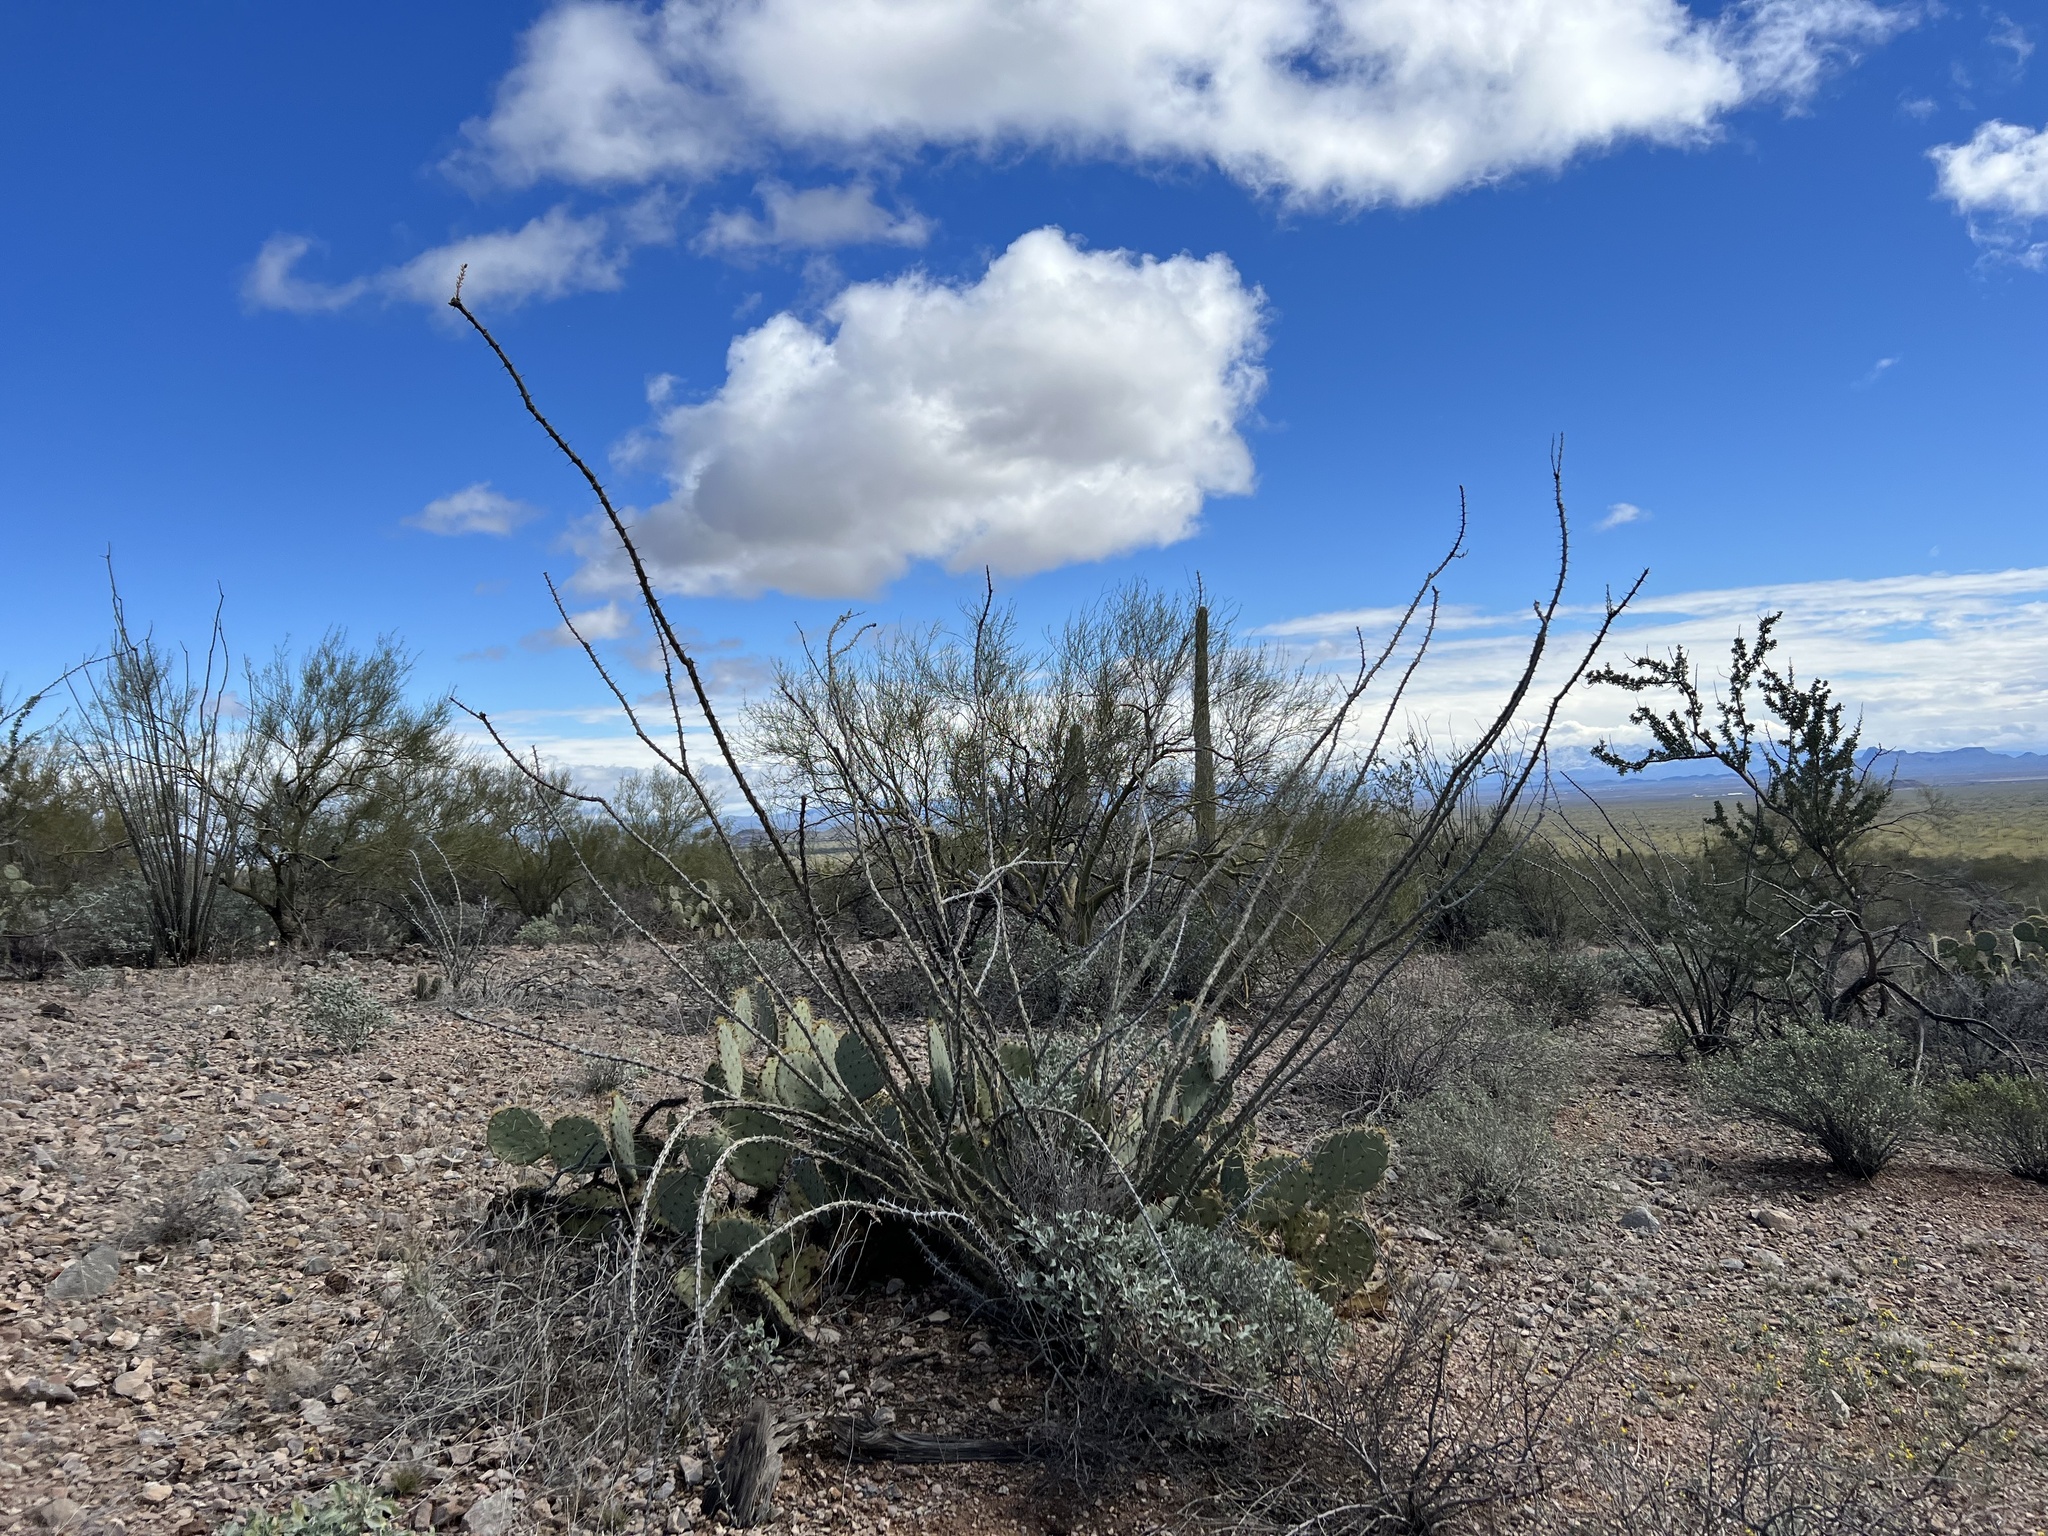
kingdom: Plantae
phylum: Tracheophyta
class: Magnoliopsida
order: Ericales
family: Fouquieriaceae
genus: Fouquieria
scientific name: Fouquieria splendens
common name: Vine-cactus
